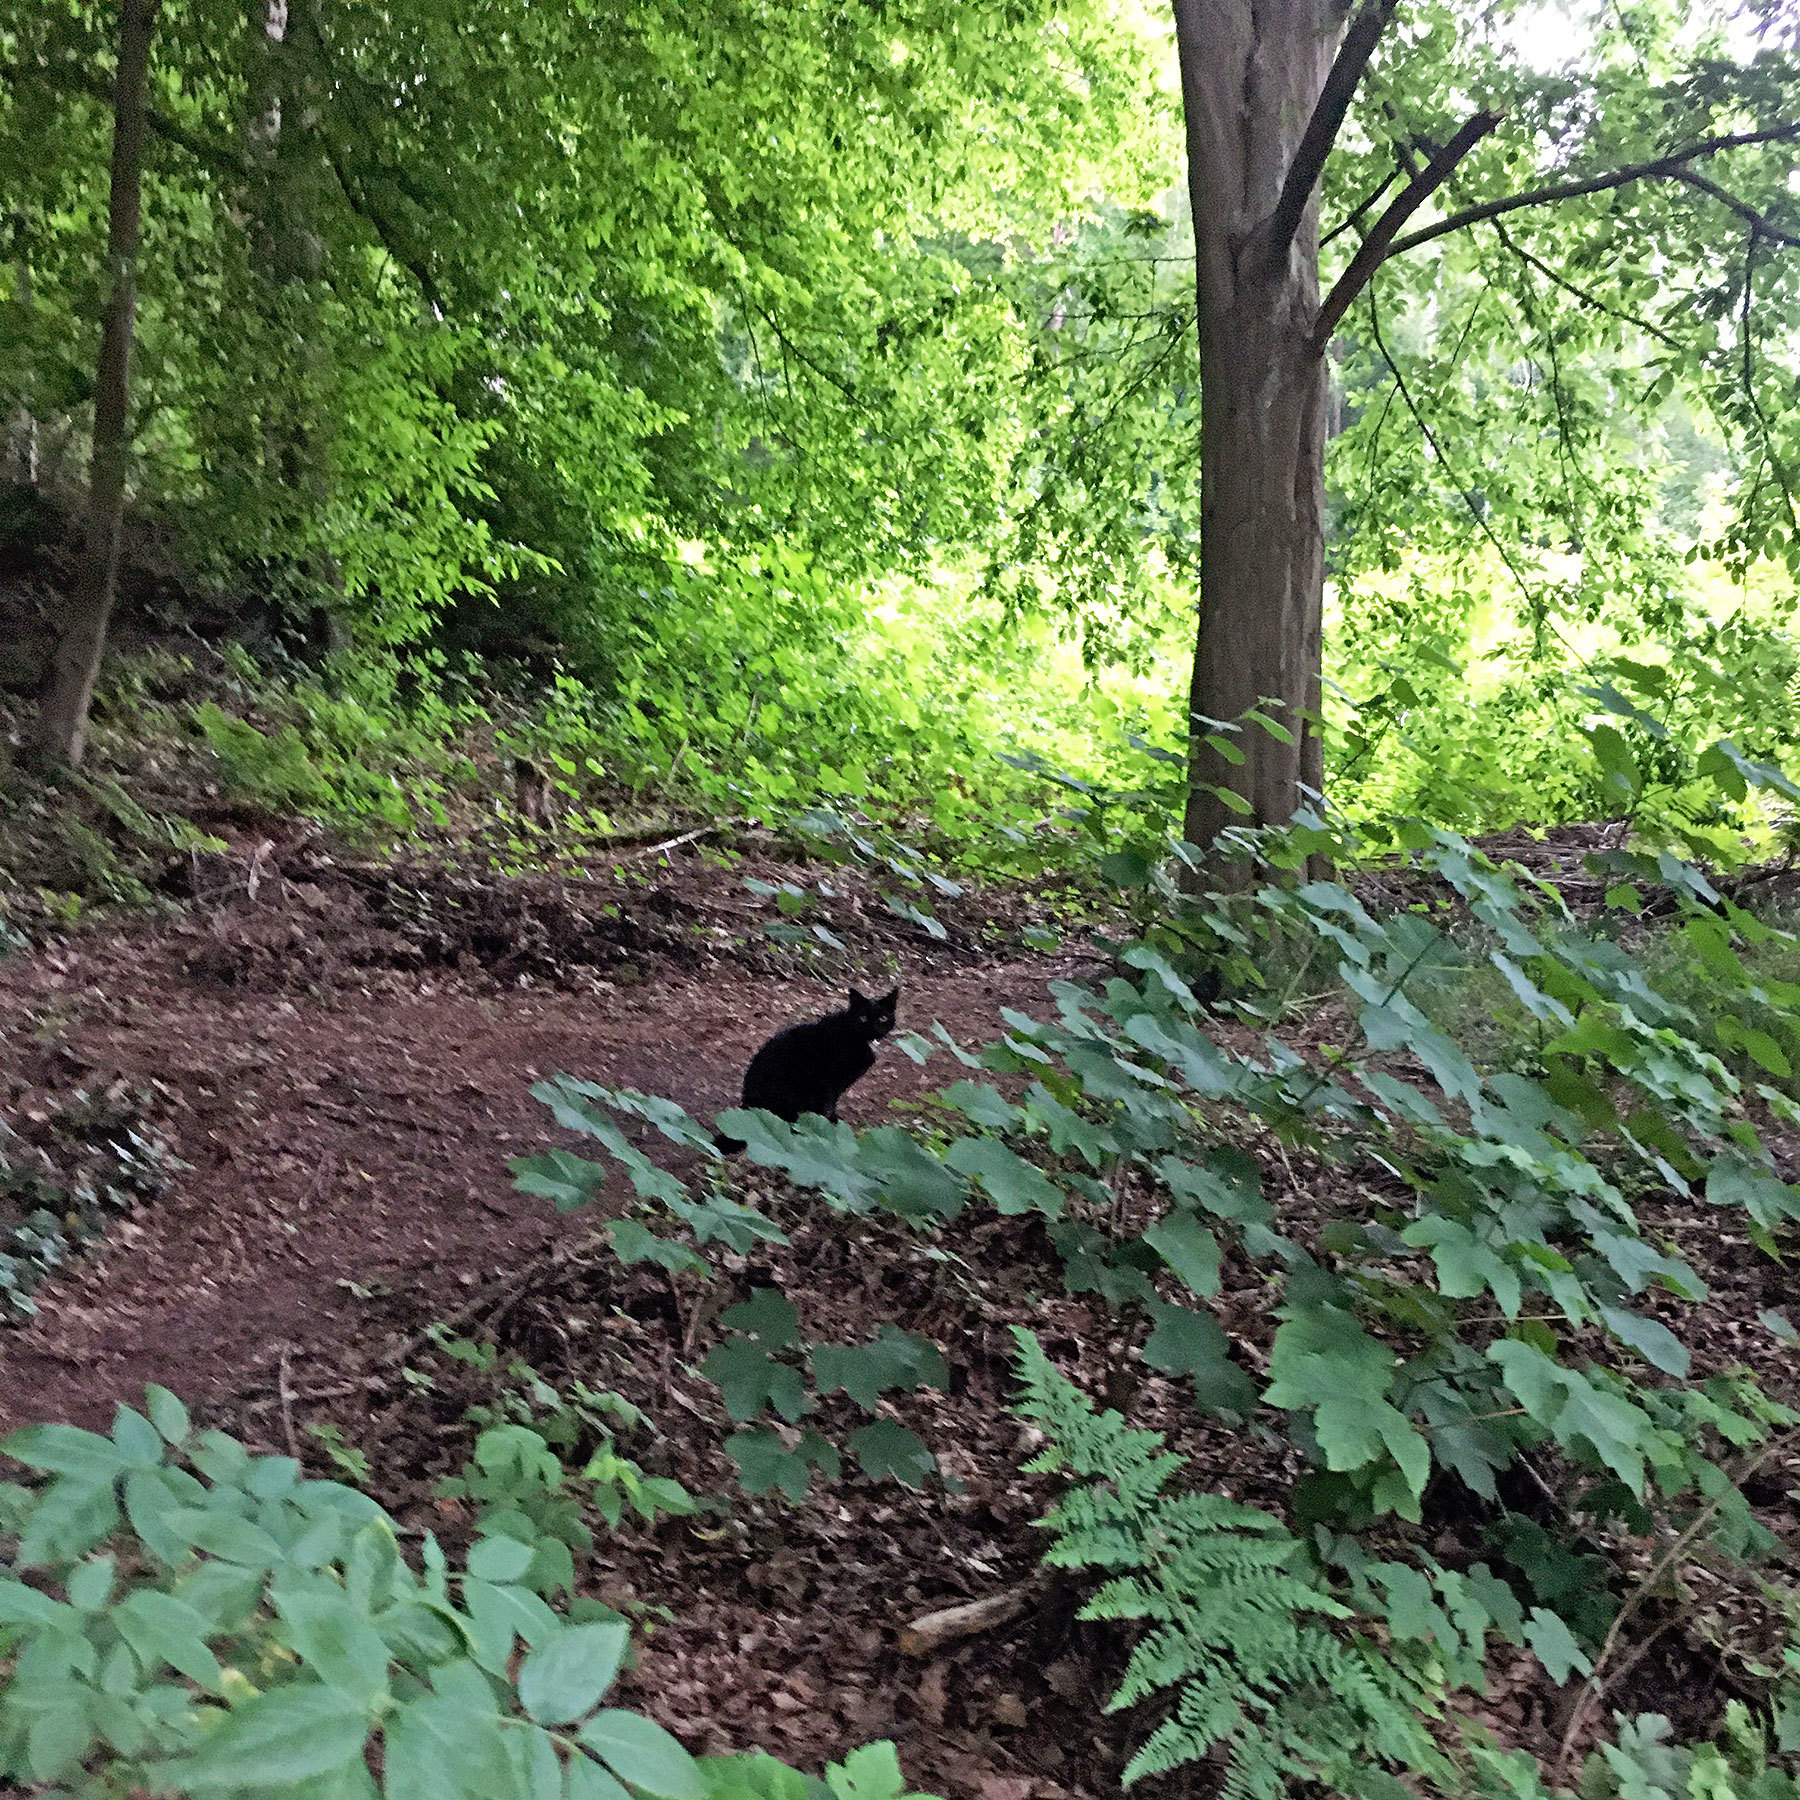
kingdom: Animalia
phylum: Chordata
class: Mammalia
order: Carnivora
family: Felidae
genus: Felis
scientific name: Felis catus
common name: Domestic cat
